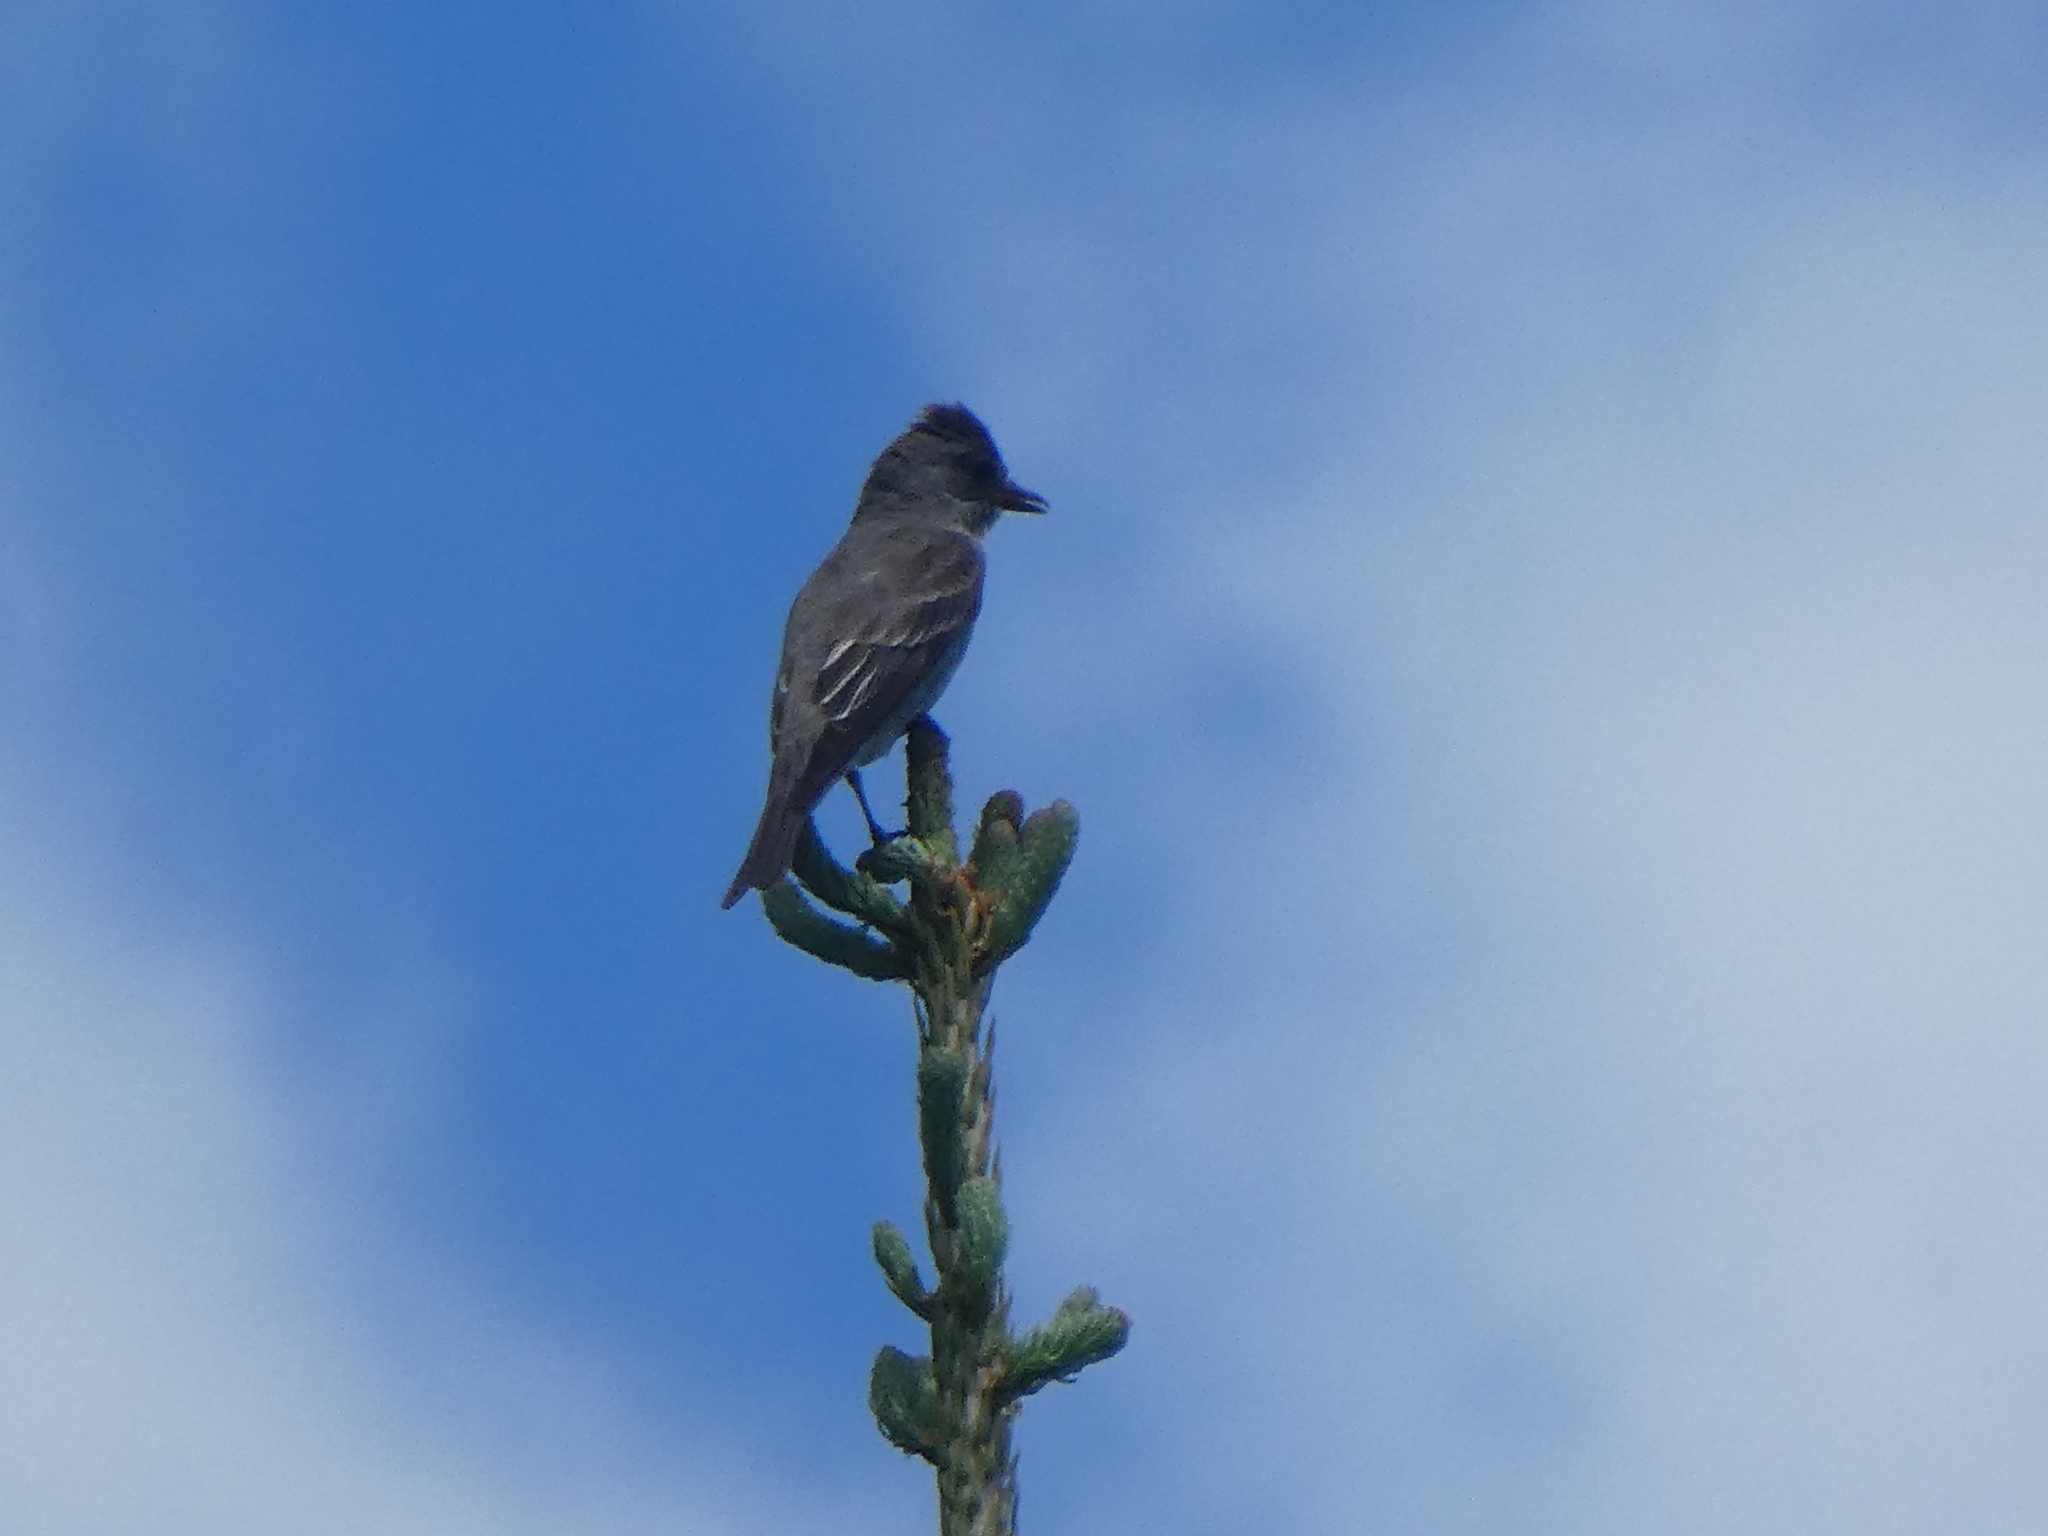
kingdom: Animalia
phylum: Chordata
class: Aves
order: Passeriformes
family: Tyrannidae
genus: Contopus
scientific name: Contopus cooperi
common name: Olive-sided flycatcher
